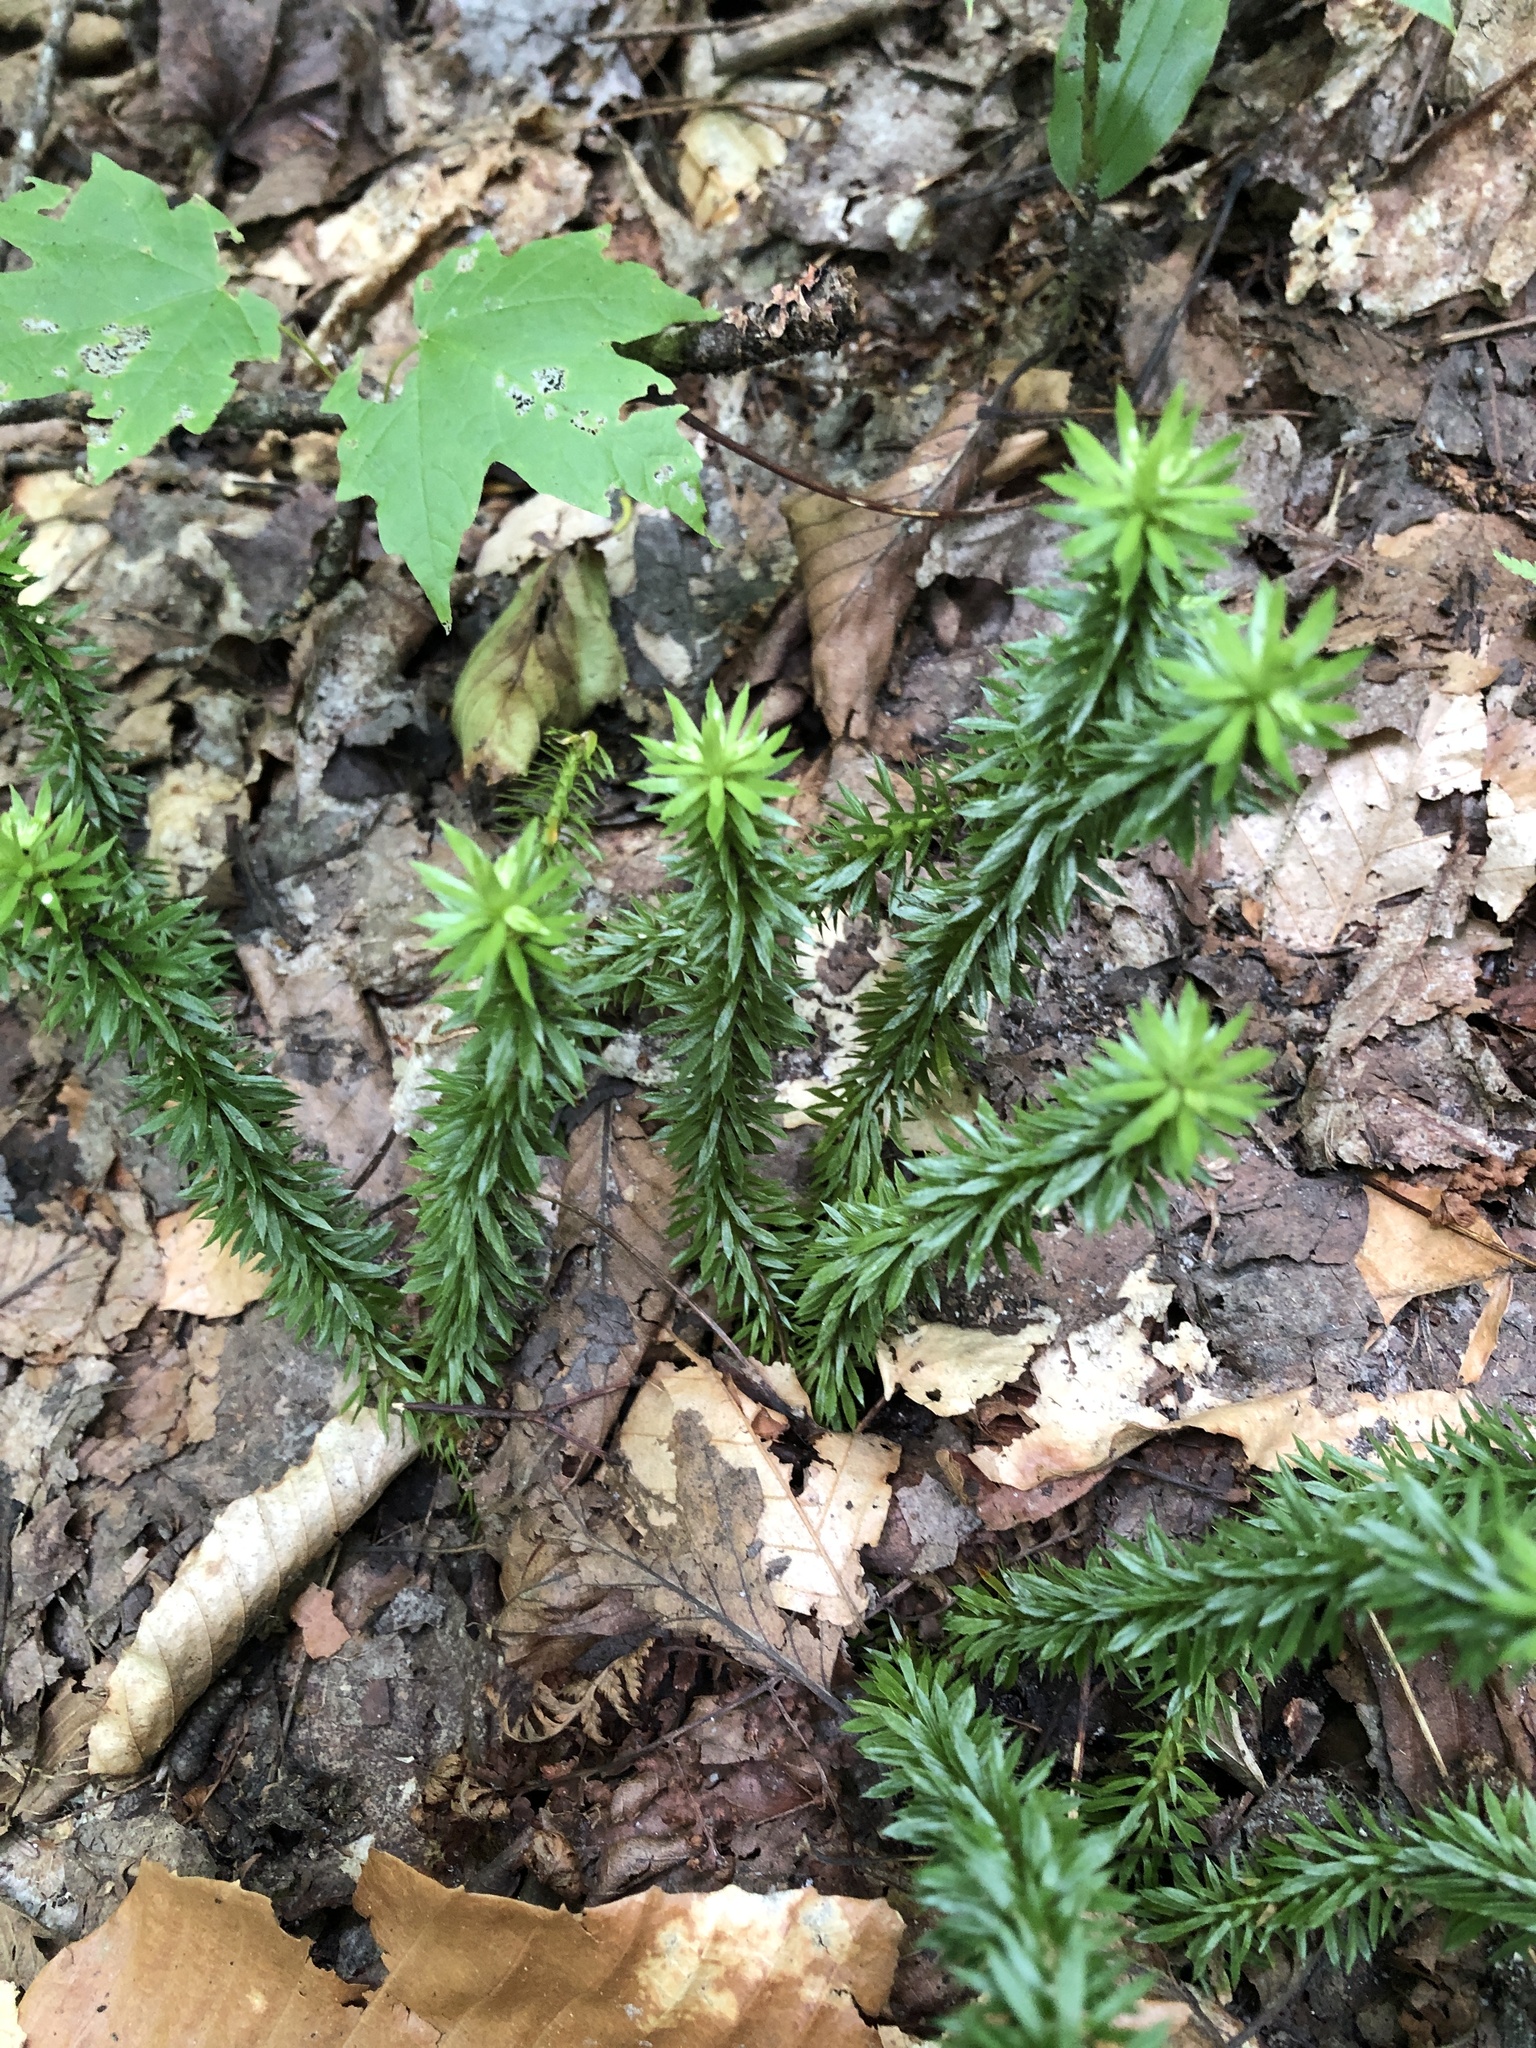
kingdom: Plantae
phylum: Tracheophyta
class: Lycopodiopsida
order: Lycopodiales
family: Lycopodiaceae
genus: Huperzia
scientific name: Huperzia lucidula
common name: Shining clubmoss
